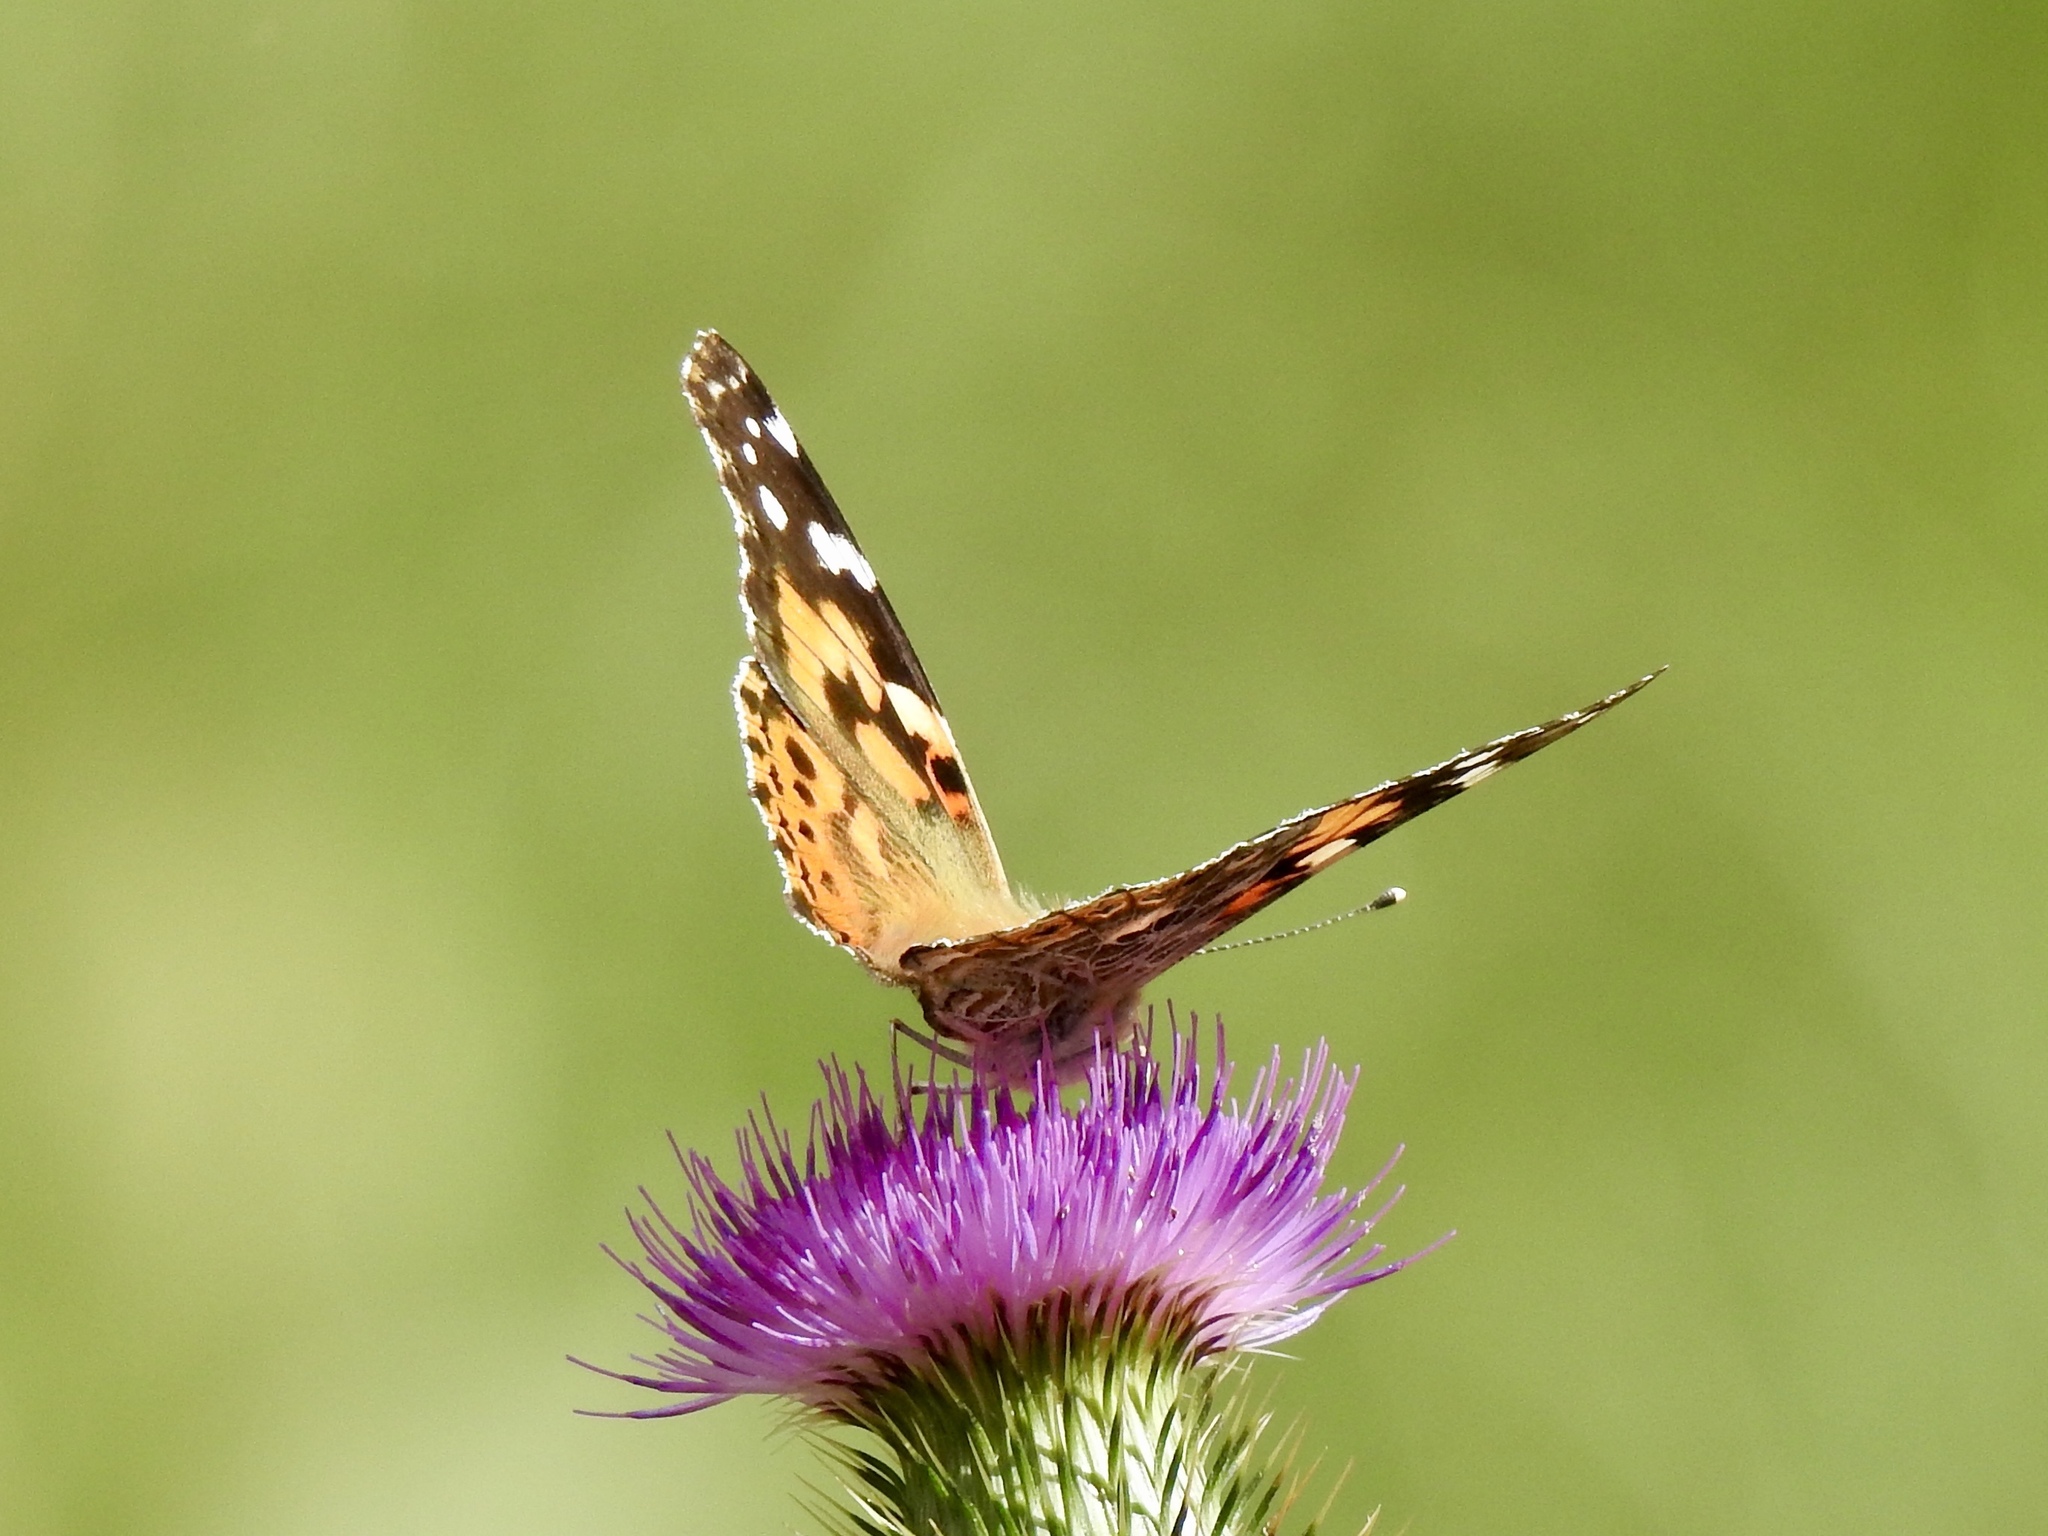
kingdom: Animalia
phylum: Arthropoda
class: Insecta
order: Lepidoptera
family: Nymphalidae
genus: Vanessa
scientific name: Vanessa cardui
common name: Painted lady
